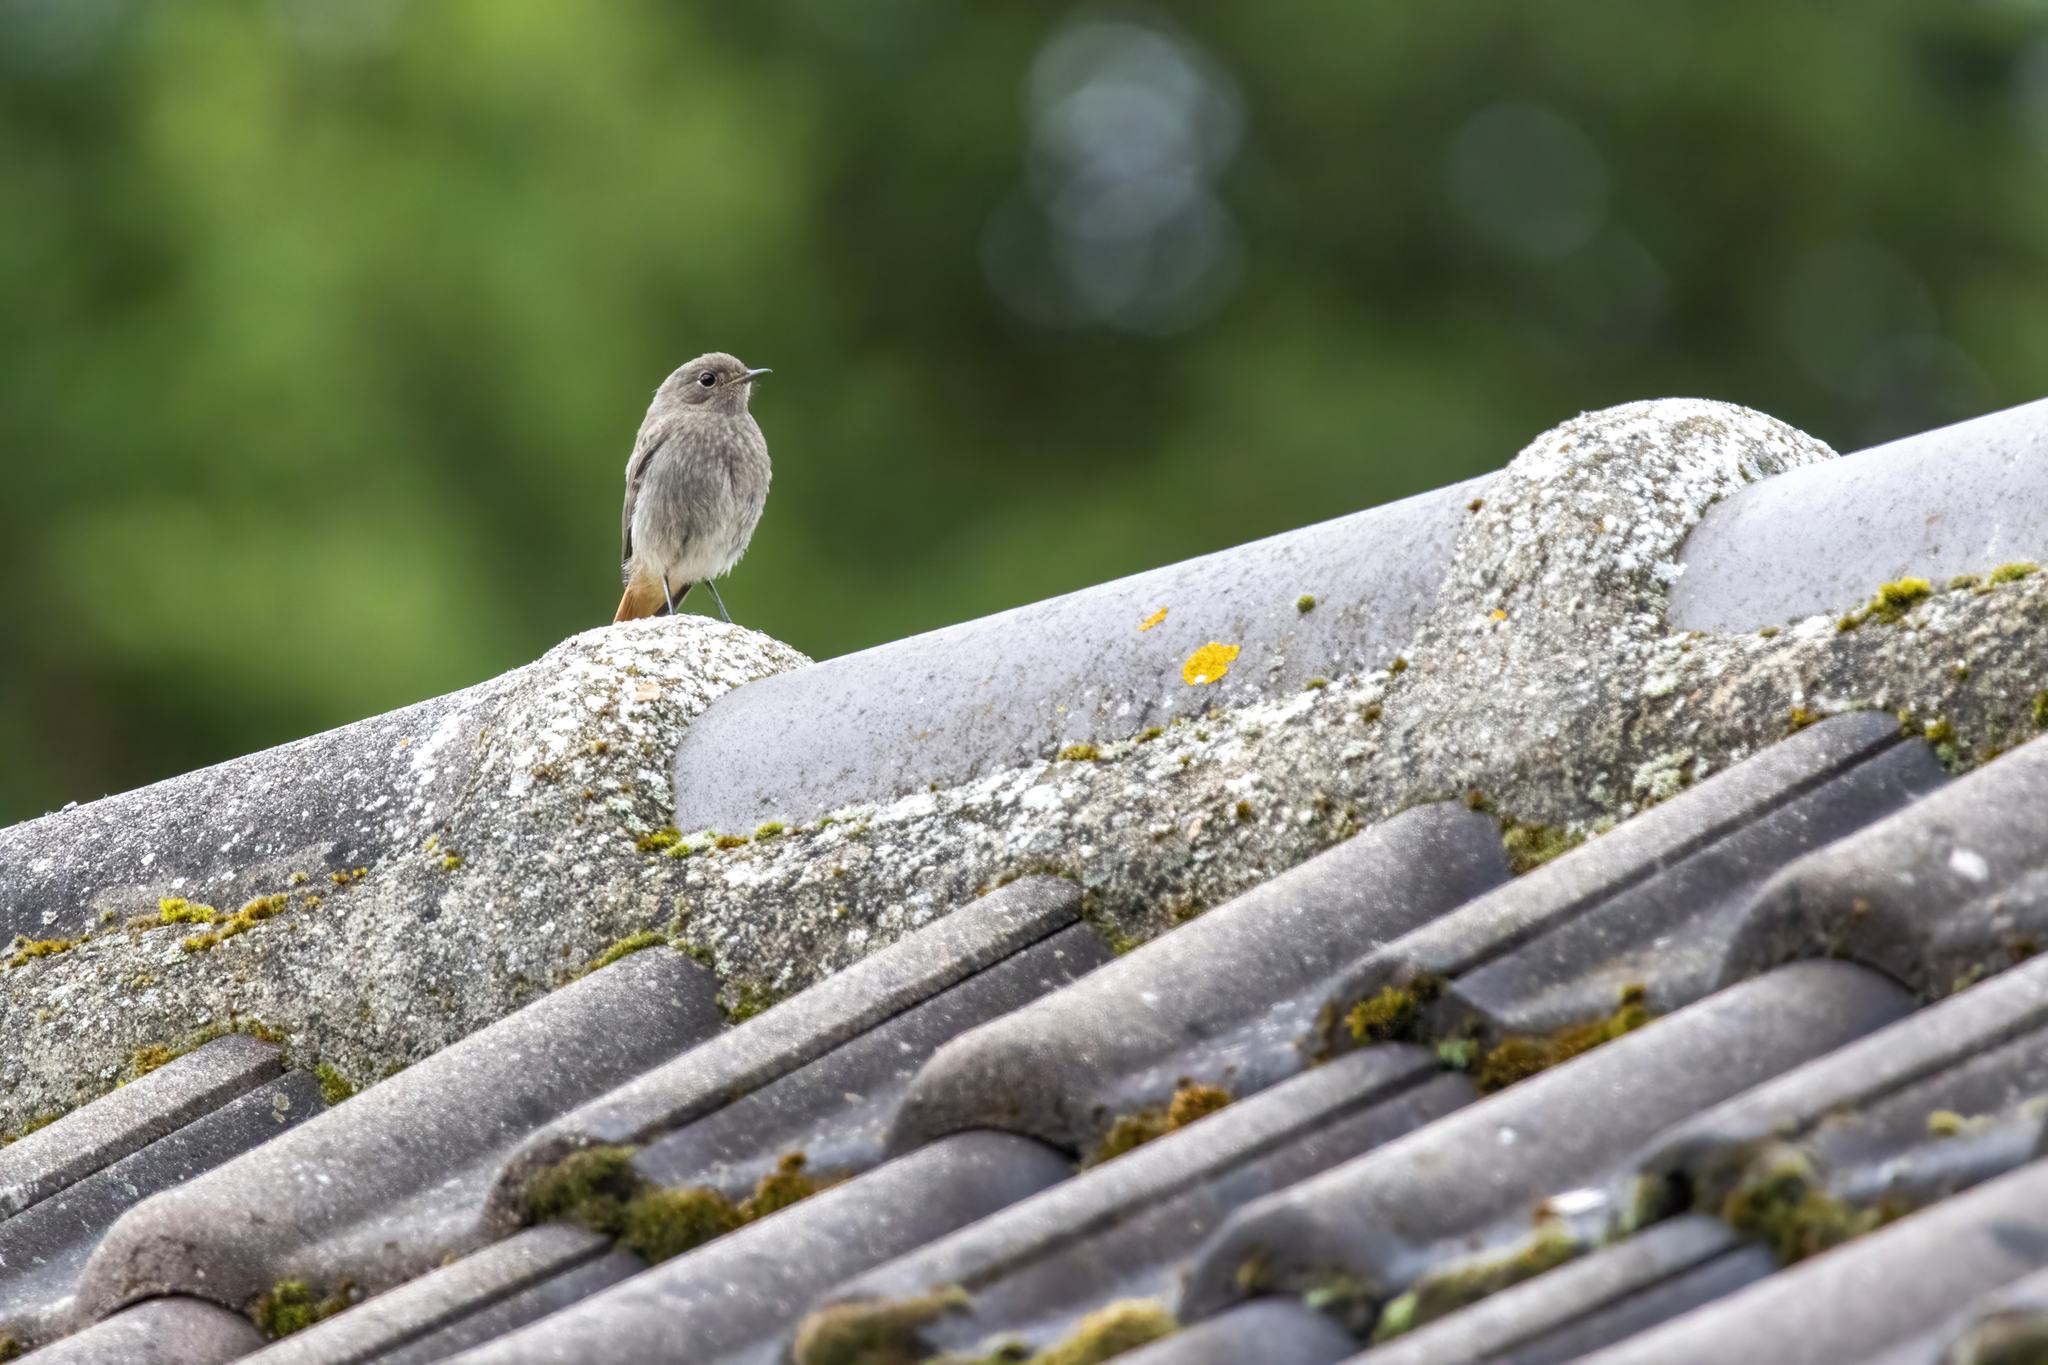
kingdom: Animalia
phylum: Chordata
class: Aves
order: Passeriformes
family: Muscicapidae
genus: Phoenicurus
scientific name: Phoenicurus ochruros
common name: Black redstart
